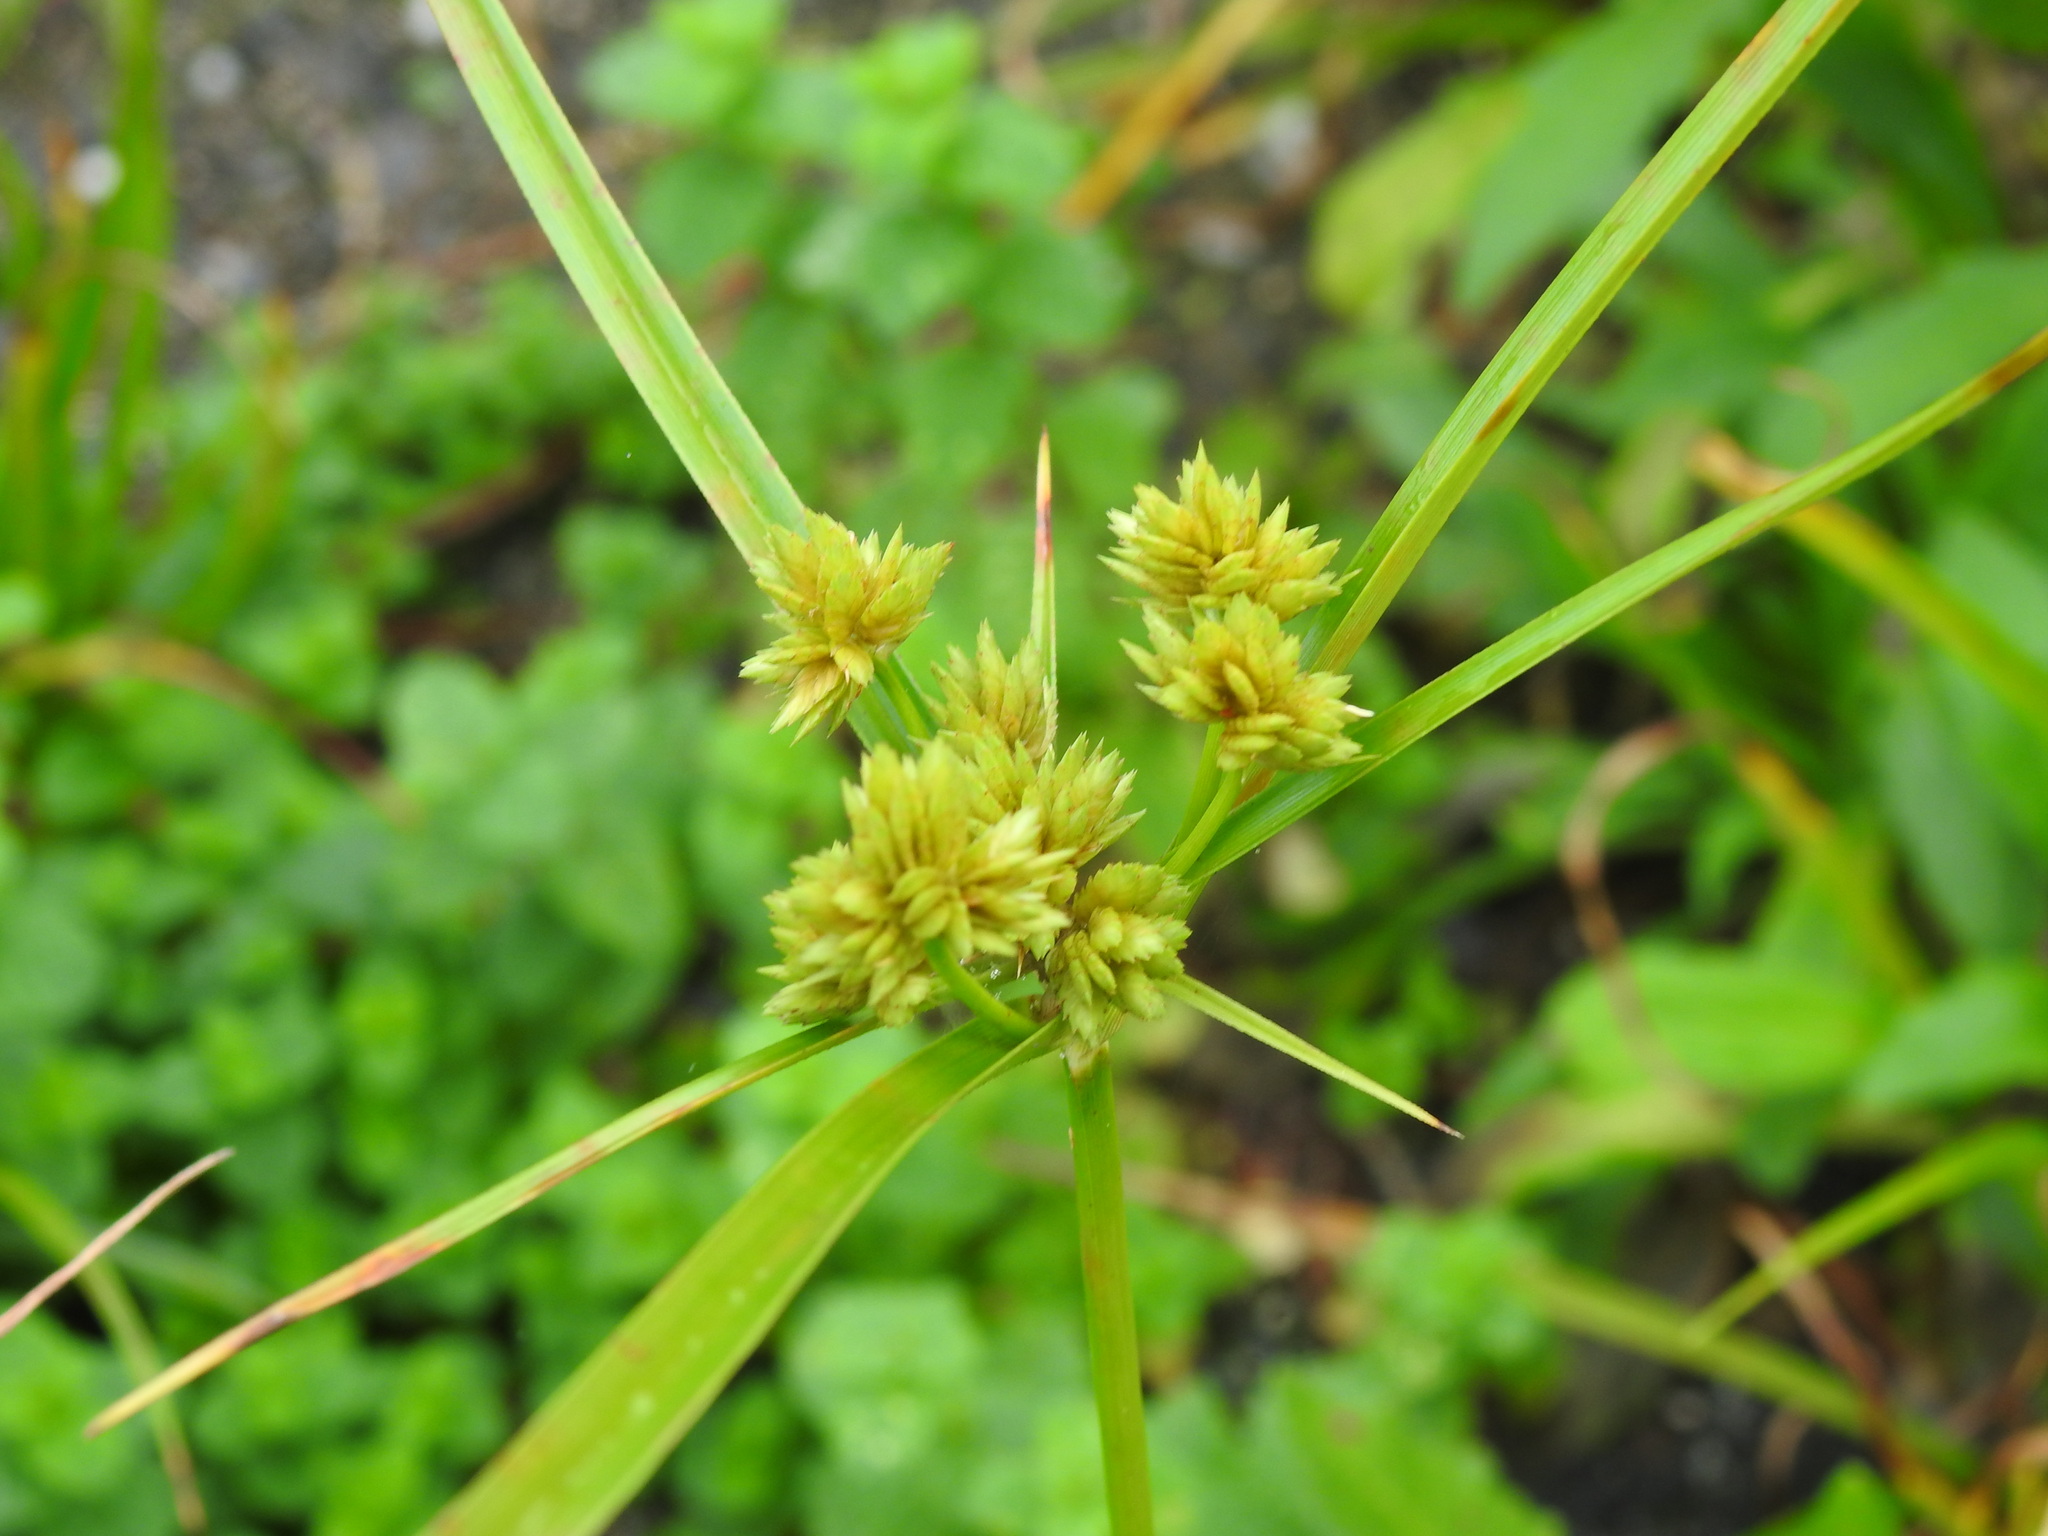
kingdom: Plantae
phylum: Tracheophyta
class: Liliopsida
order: Poales
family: Cyperaceae
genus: Cyperus
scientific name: Cyperus eragrostis
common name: Tall flatsedge
